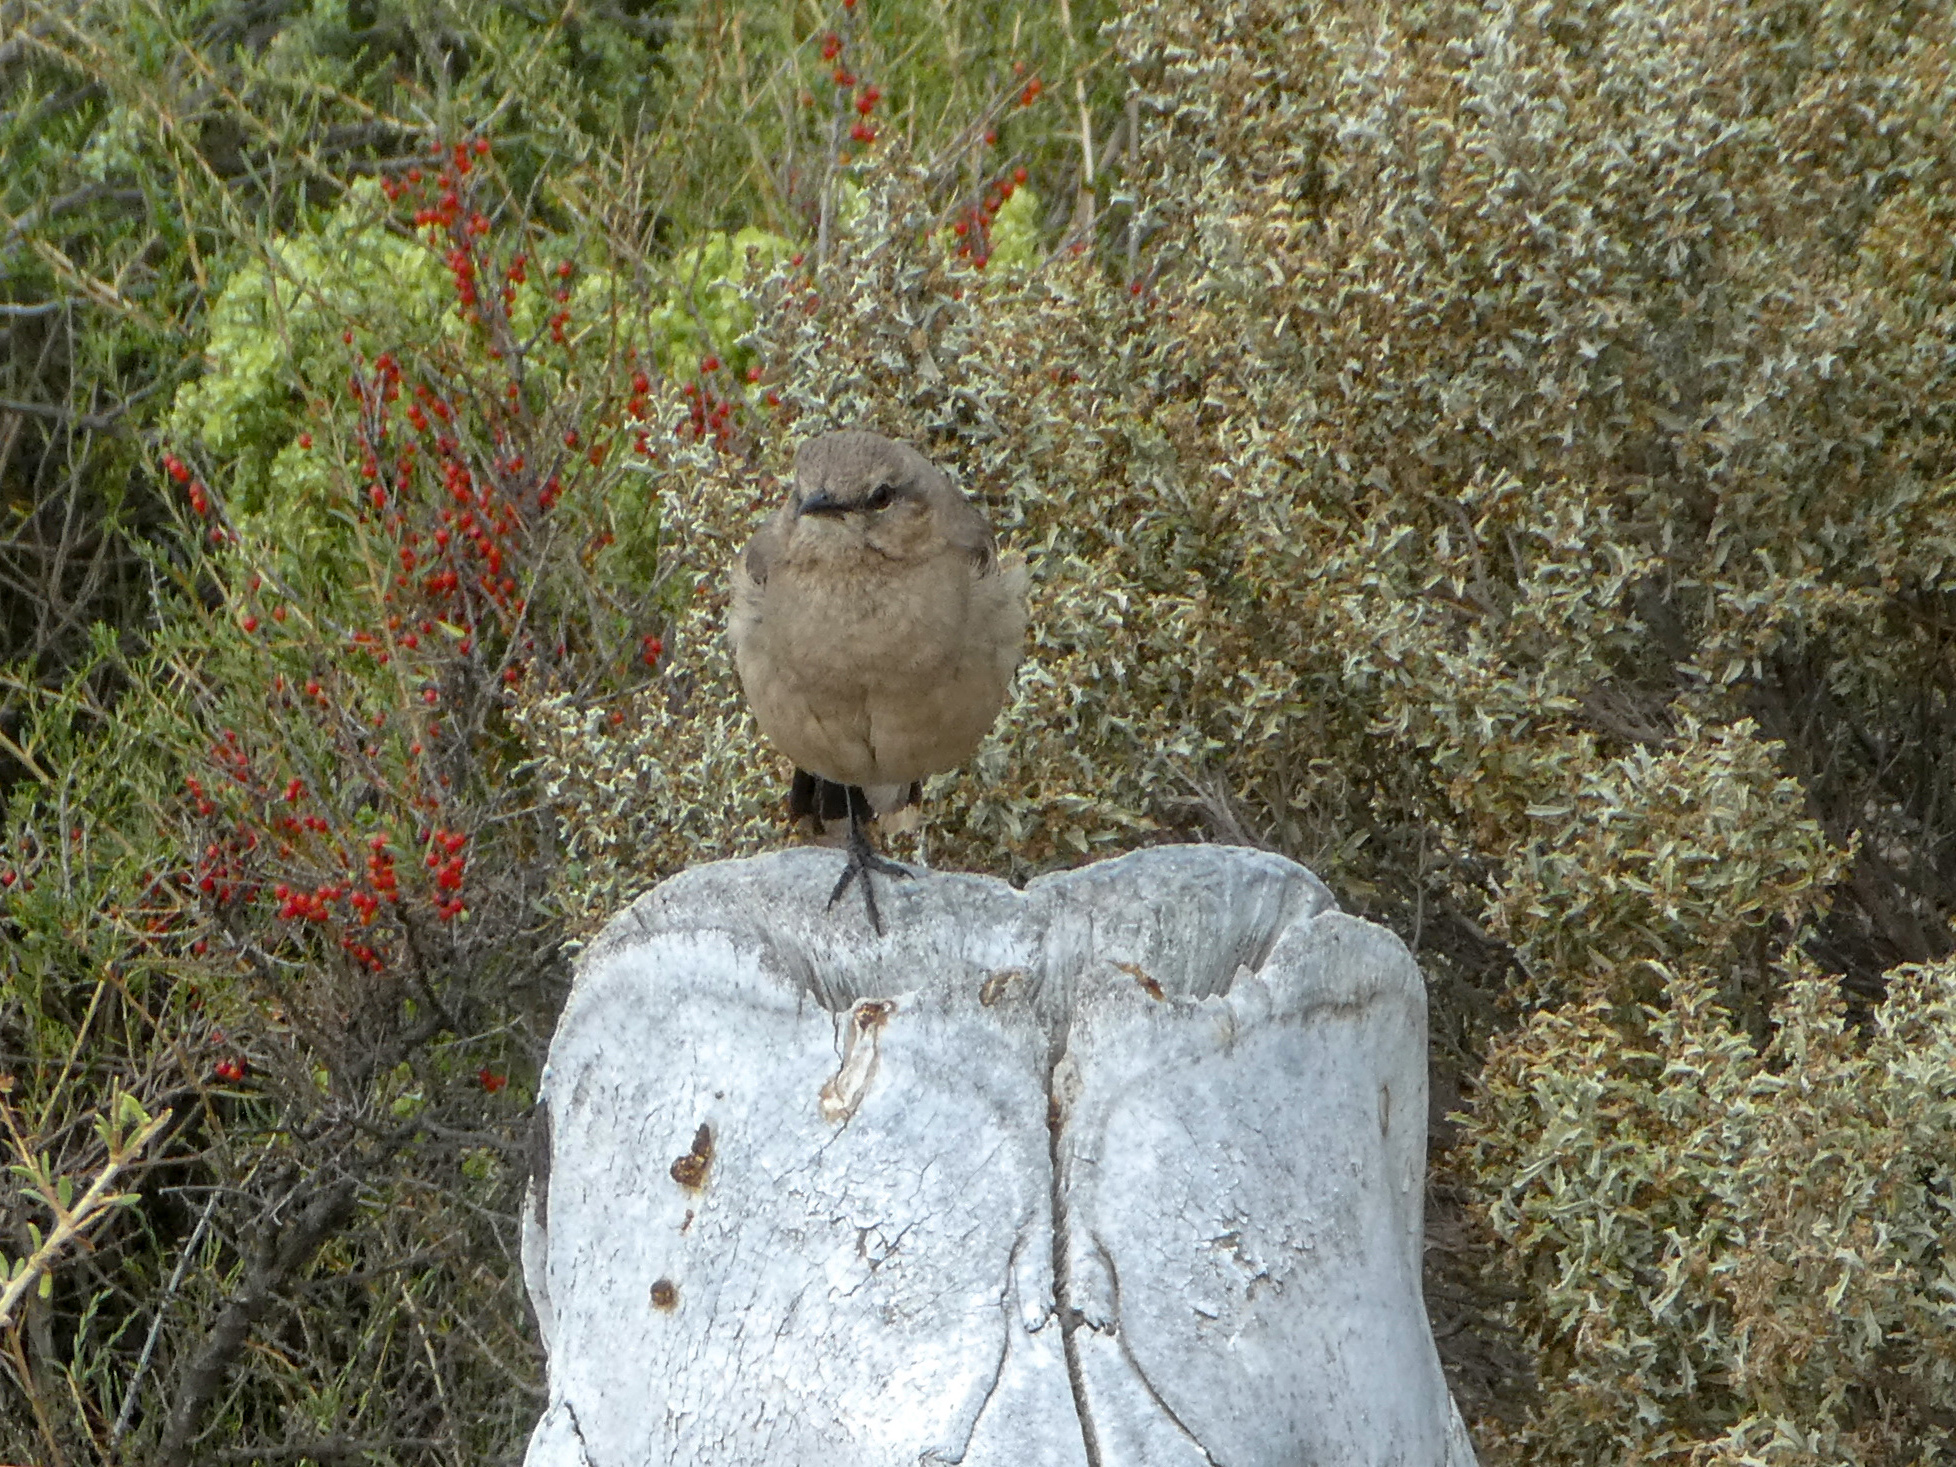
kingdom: Animalia
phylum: Chordata
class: Aves
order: Passeriformes
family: Mimidae
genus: Mimus
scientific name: Mimus patagonicus
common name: Patagonian mockingbird
